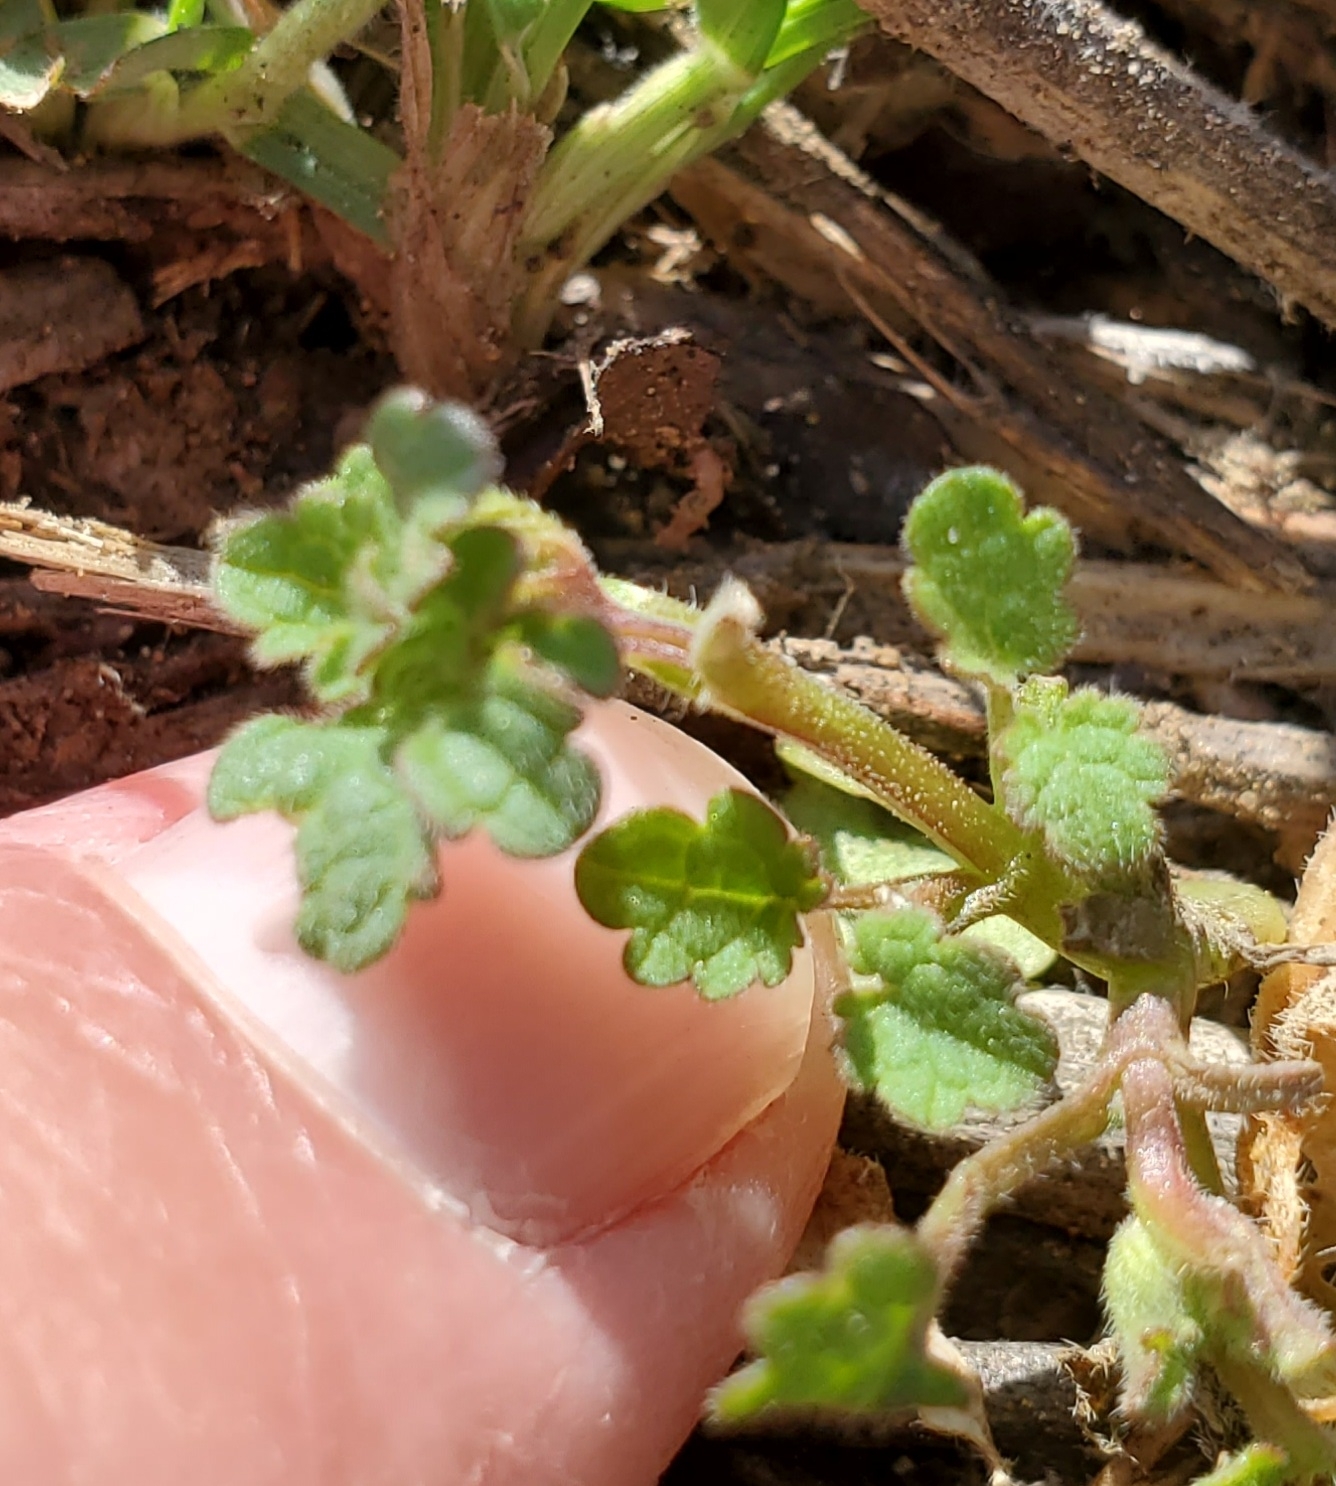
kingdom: Plantae
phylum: Tracheophyta
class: Magnoliopsida
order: Lamiales
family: Lamiaceae
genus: Lamium
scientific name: Lamium amplexicaule
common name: Henbit dead-nettle
